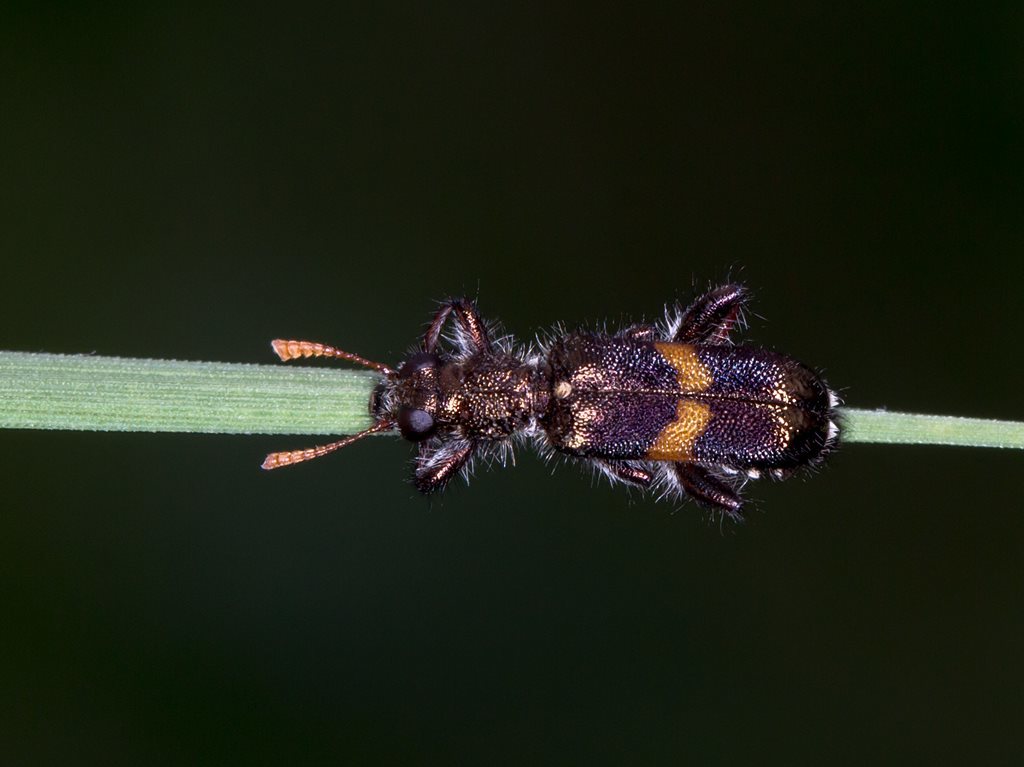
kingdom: Animalia
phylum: Arthropoda
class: Insecta
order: Coleoptera
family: Cleridae
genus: Eleale
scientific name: Eleale
